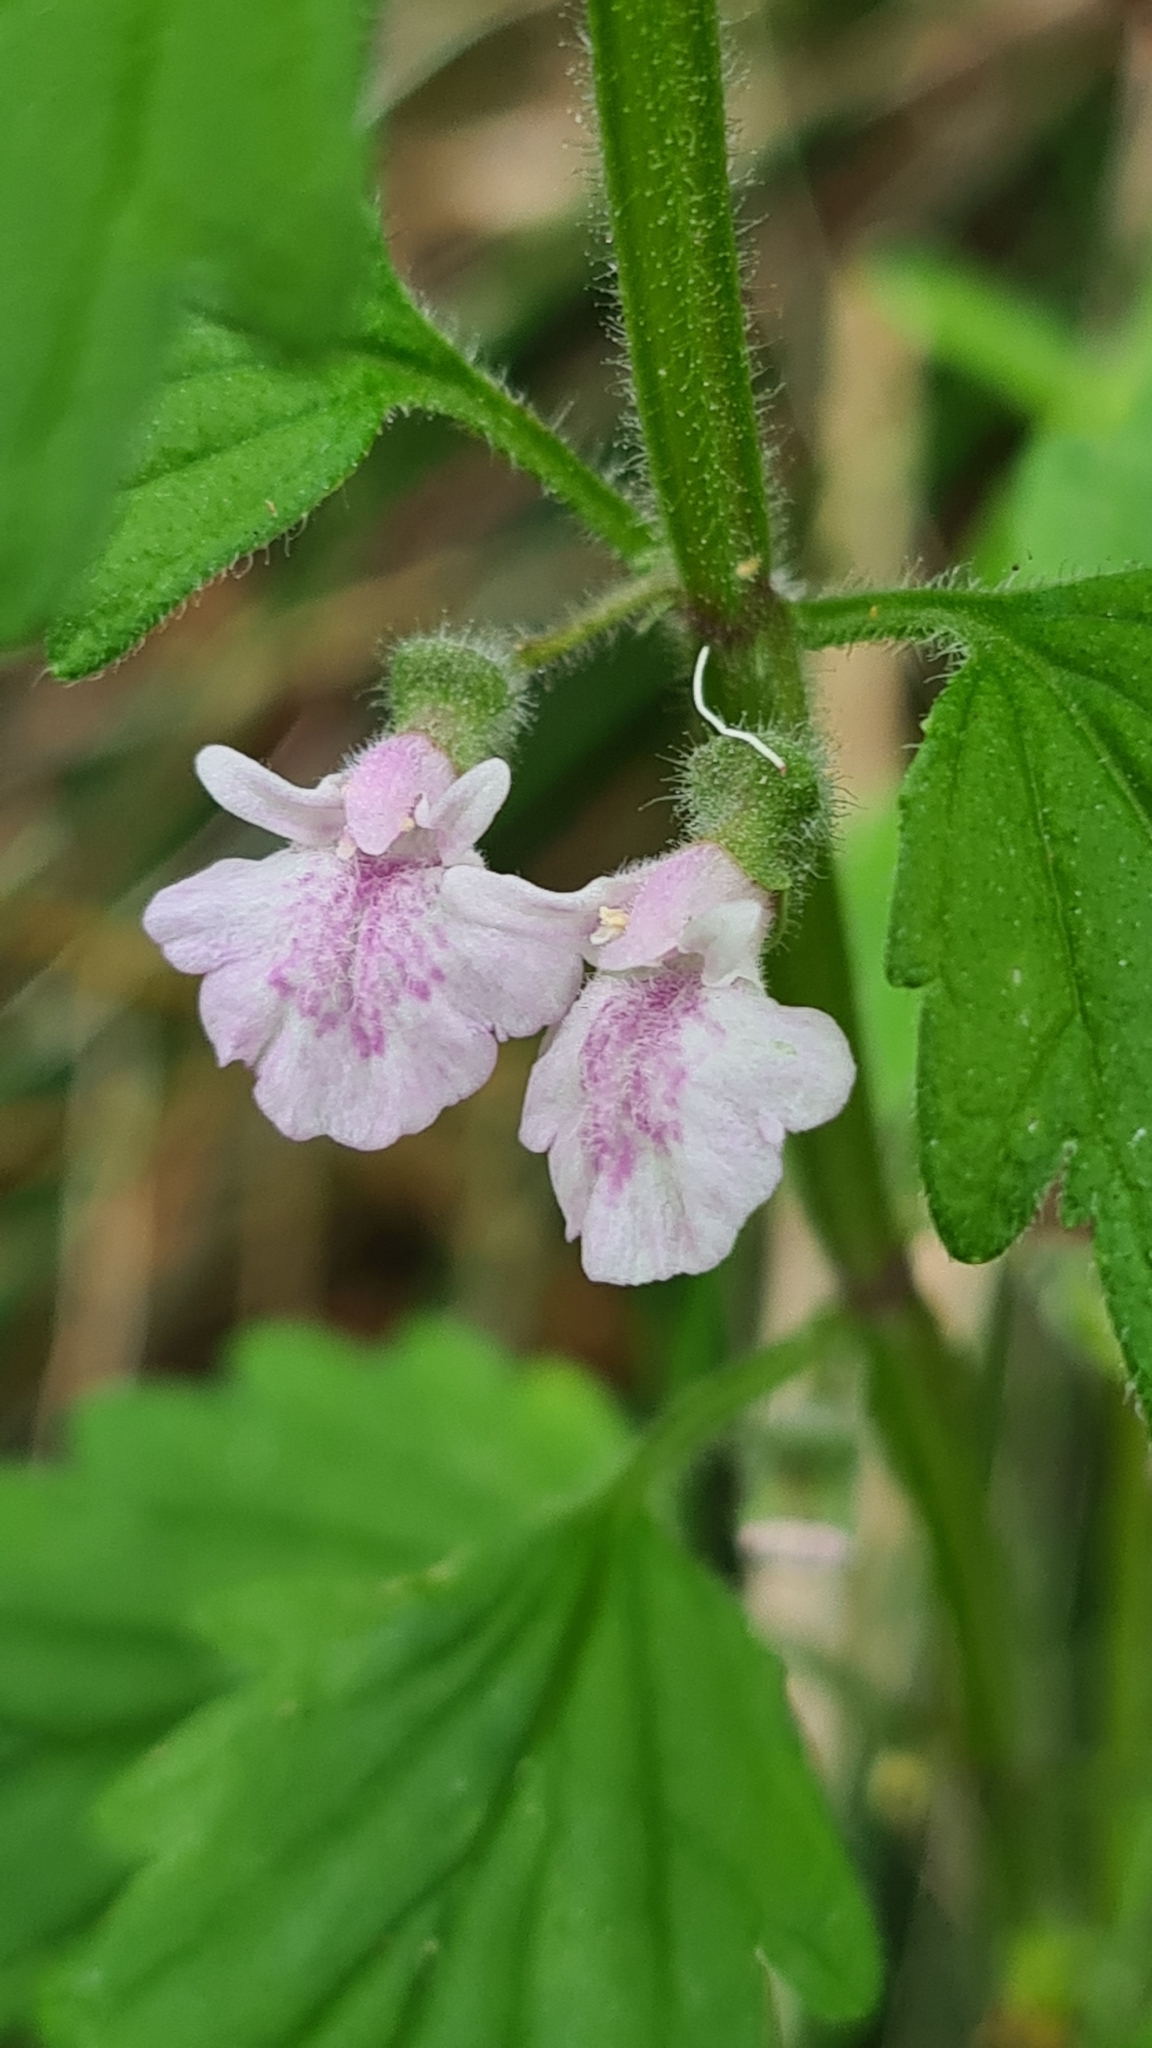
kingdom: Plantae
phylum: Tracheophyta
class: Magnoliopsida
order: Lamiales
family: Lamiaceae
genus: Scutellaria
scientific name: Scutellaria mollis
